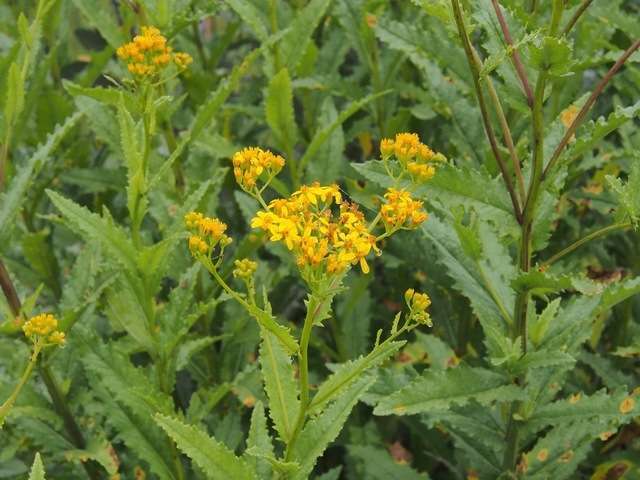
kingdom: Plantae
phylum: Tracheophyta
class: Magnoliopsida
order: Asterales
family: Asteraceae
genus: Senecio
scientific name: Senecio linearifolius
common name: Fireweed groundsel
